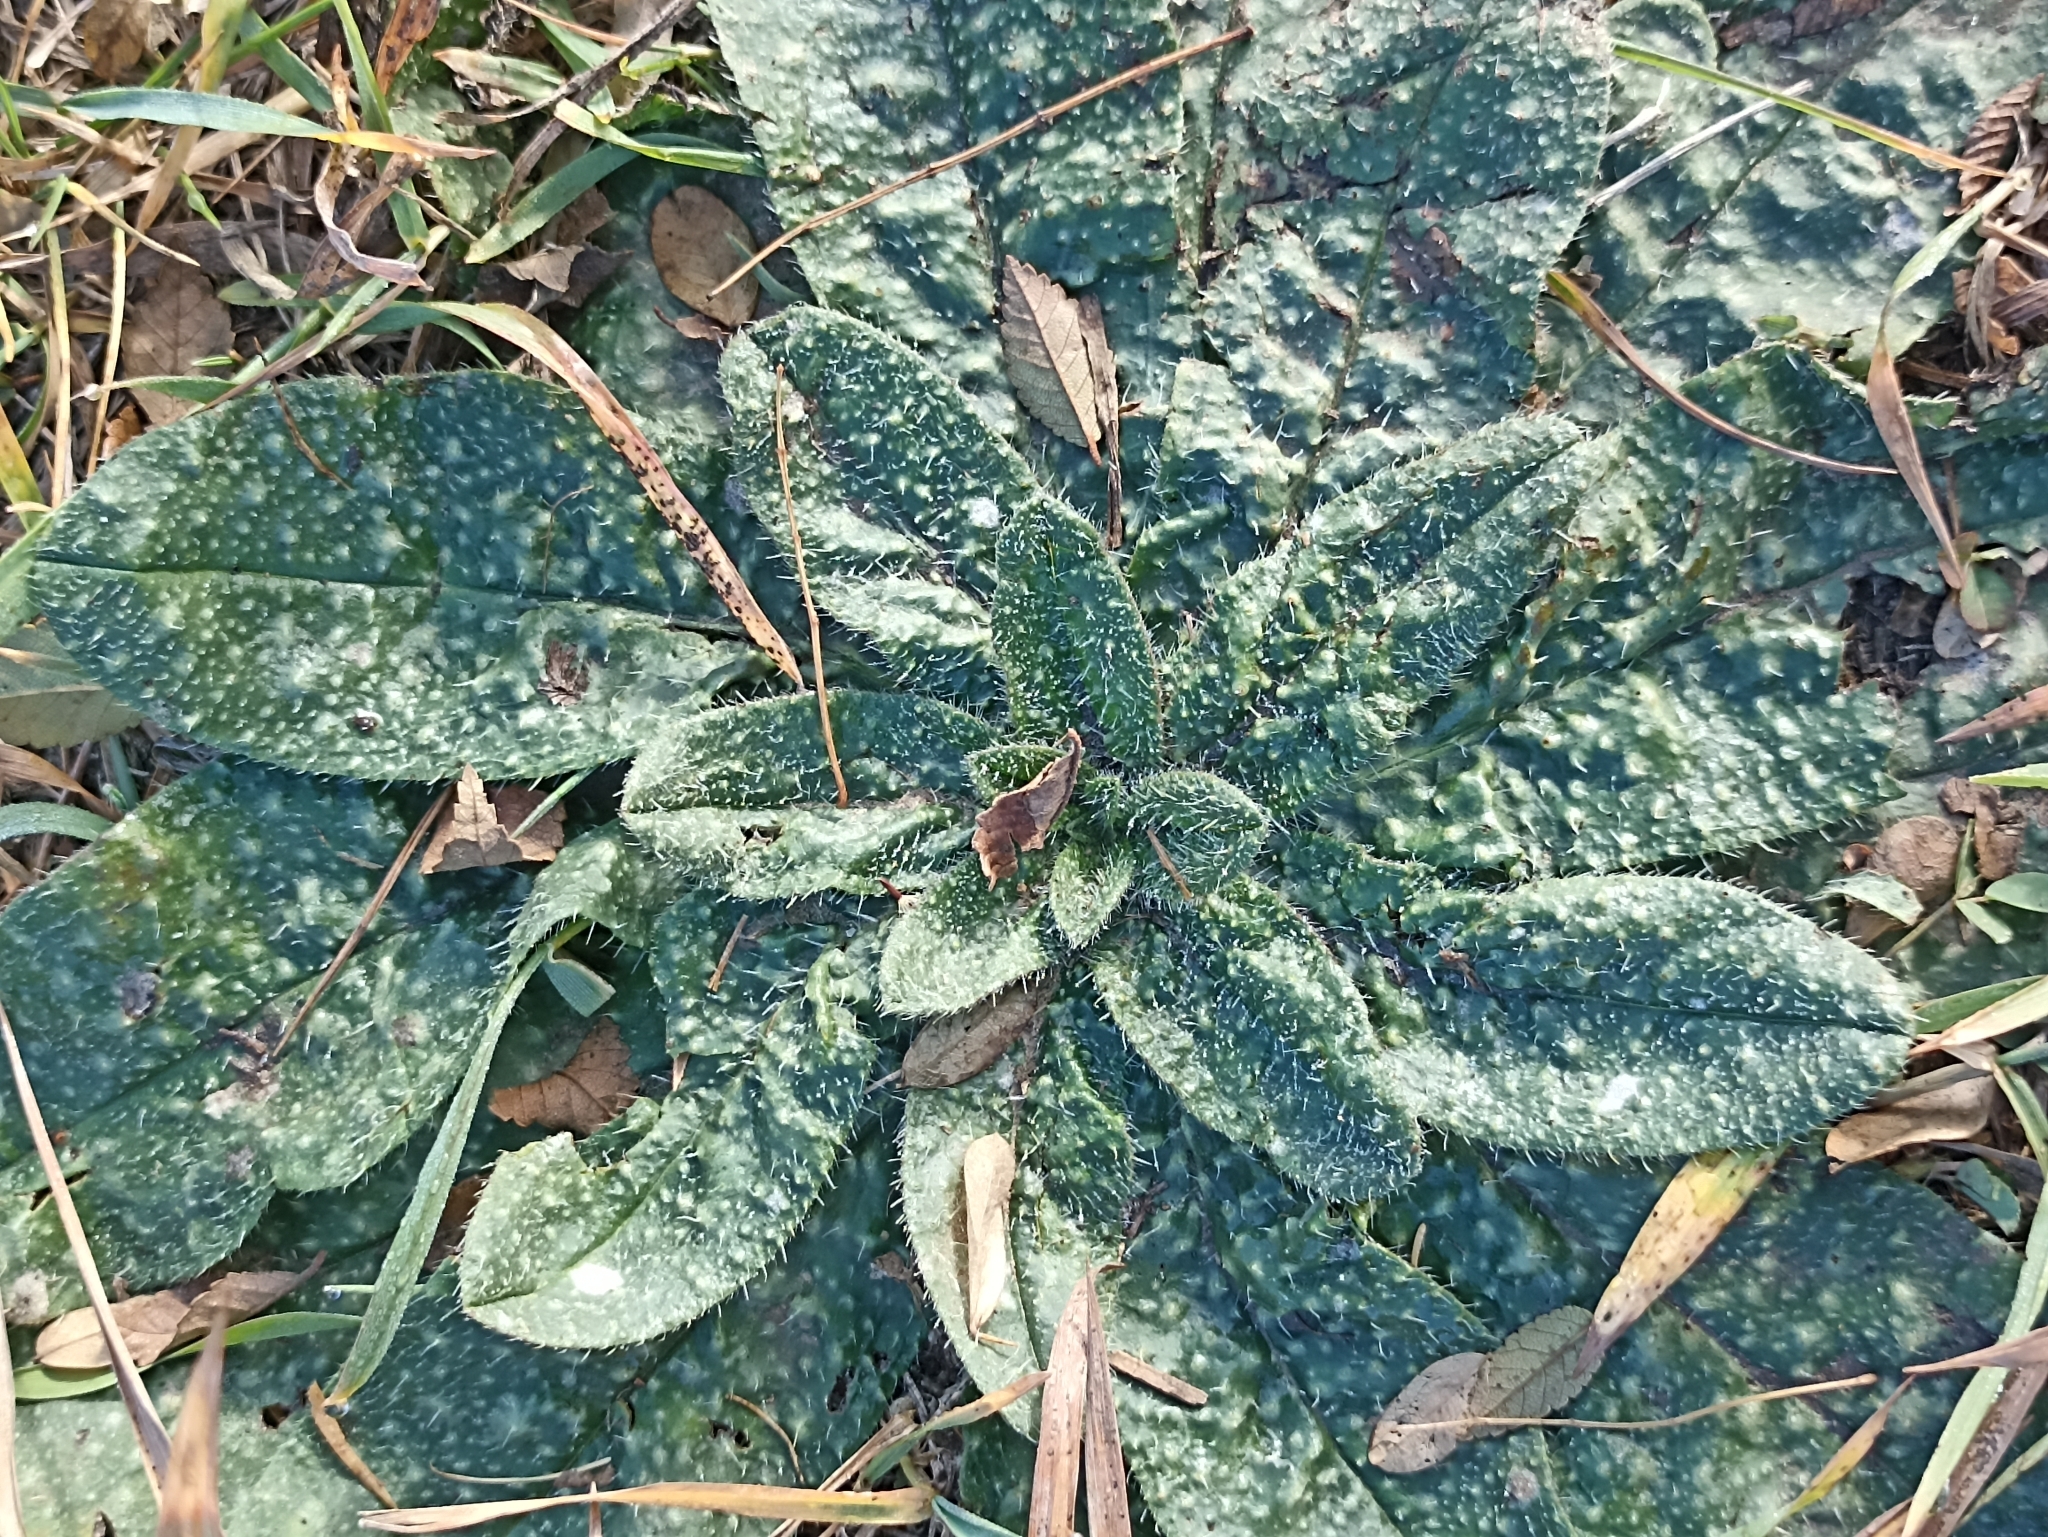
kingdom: Plantae
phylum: Tracheophyta
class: Magnoliopsida
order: Boraginales
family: Boraginaceae
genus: Echium
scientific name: Echium vulgare
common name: Common viper's bugloss
